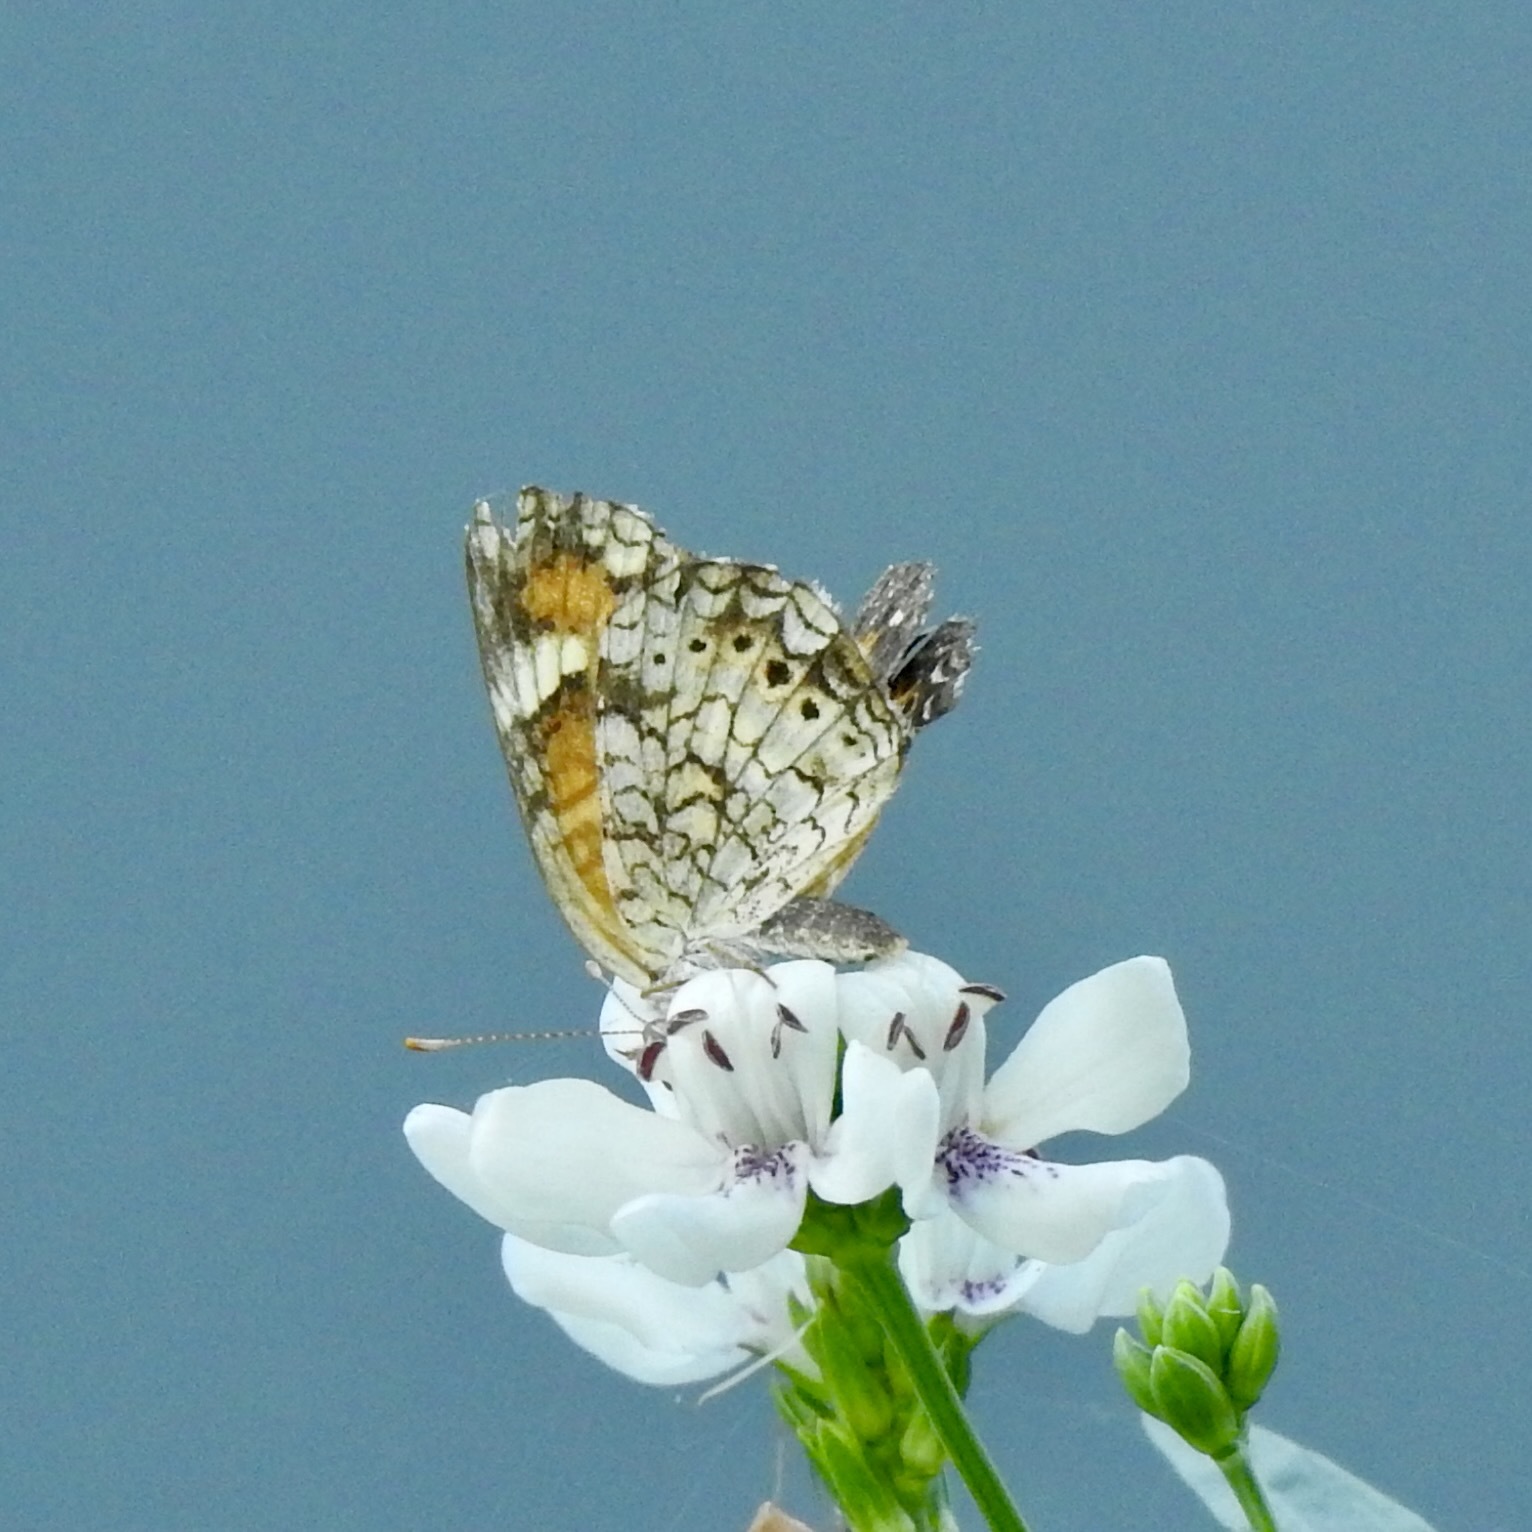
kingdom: Animalia
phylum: Arthropoda
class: Insecta
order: Lepidoptera
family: Nymphalidae
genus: Phyciodes
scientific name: Phyciodes phaon
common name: Phaon crescent
